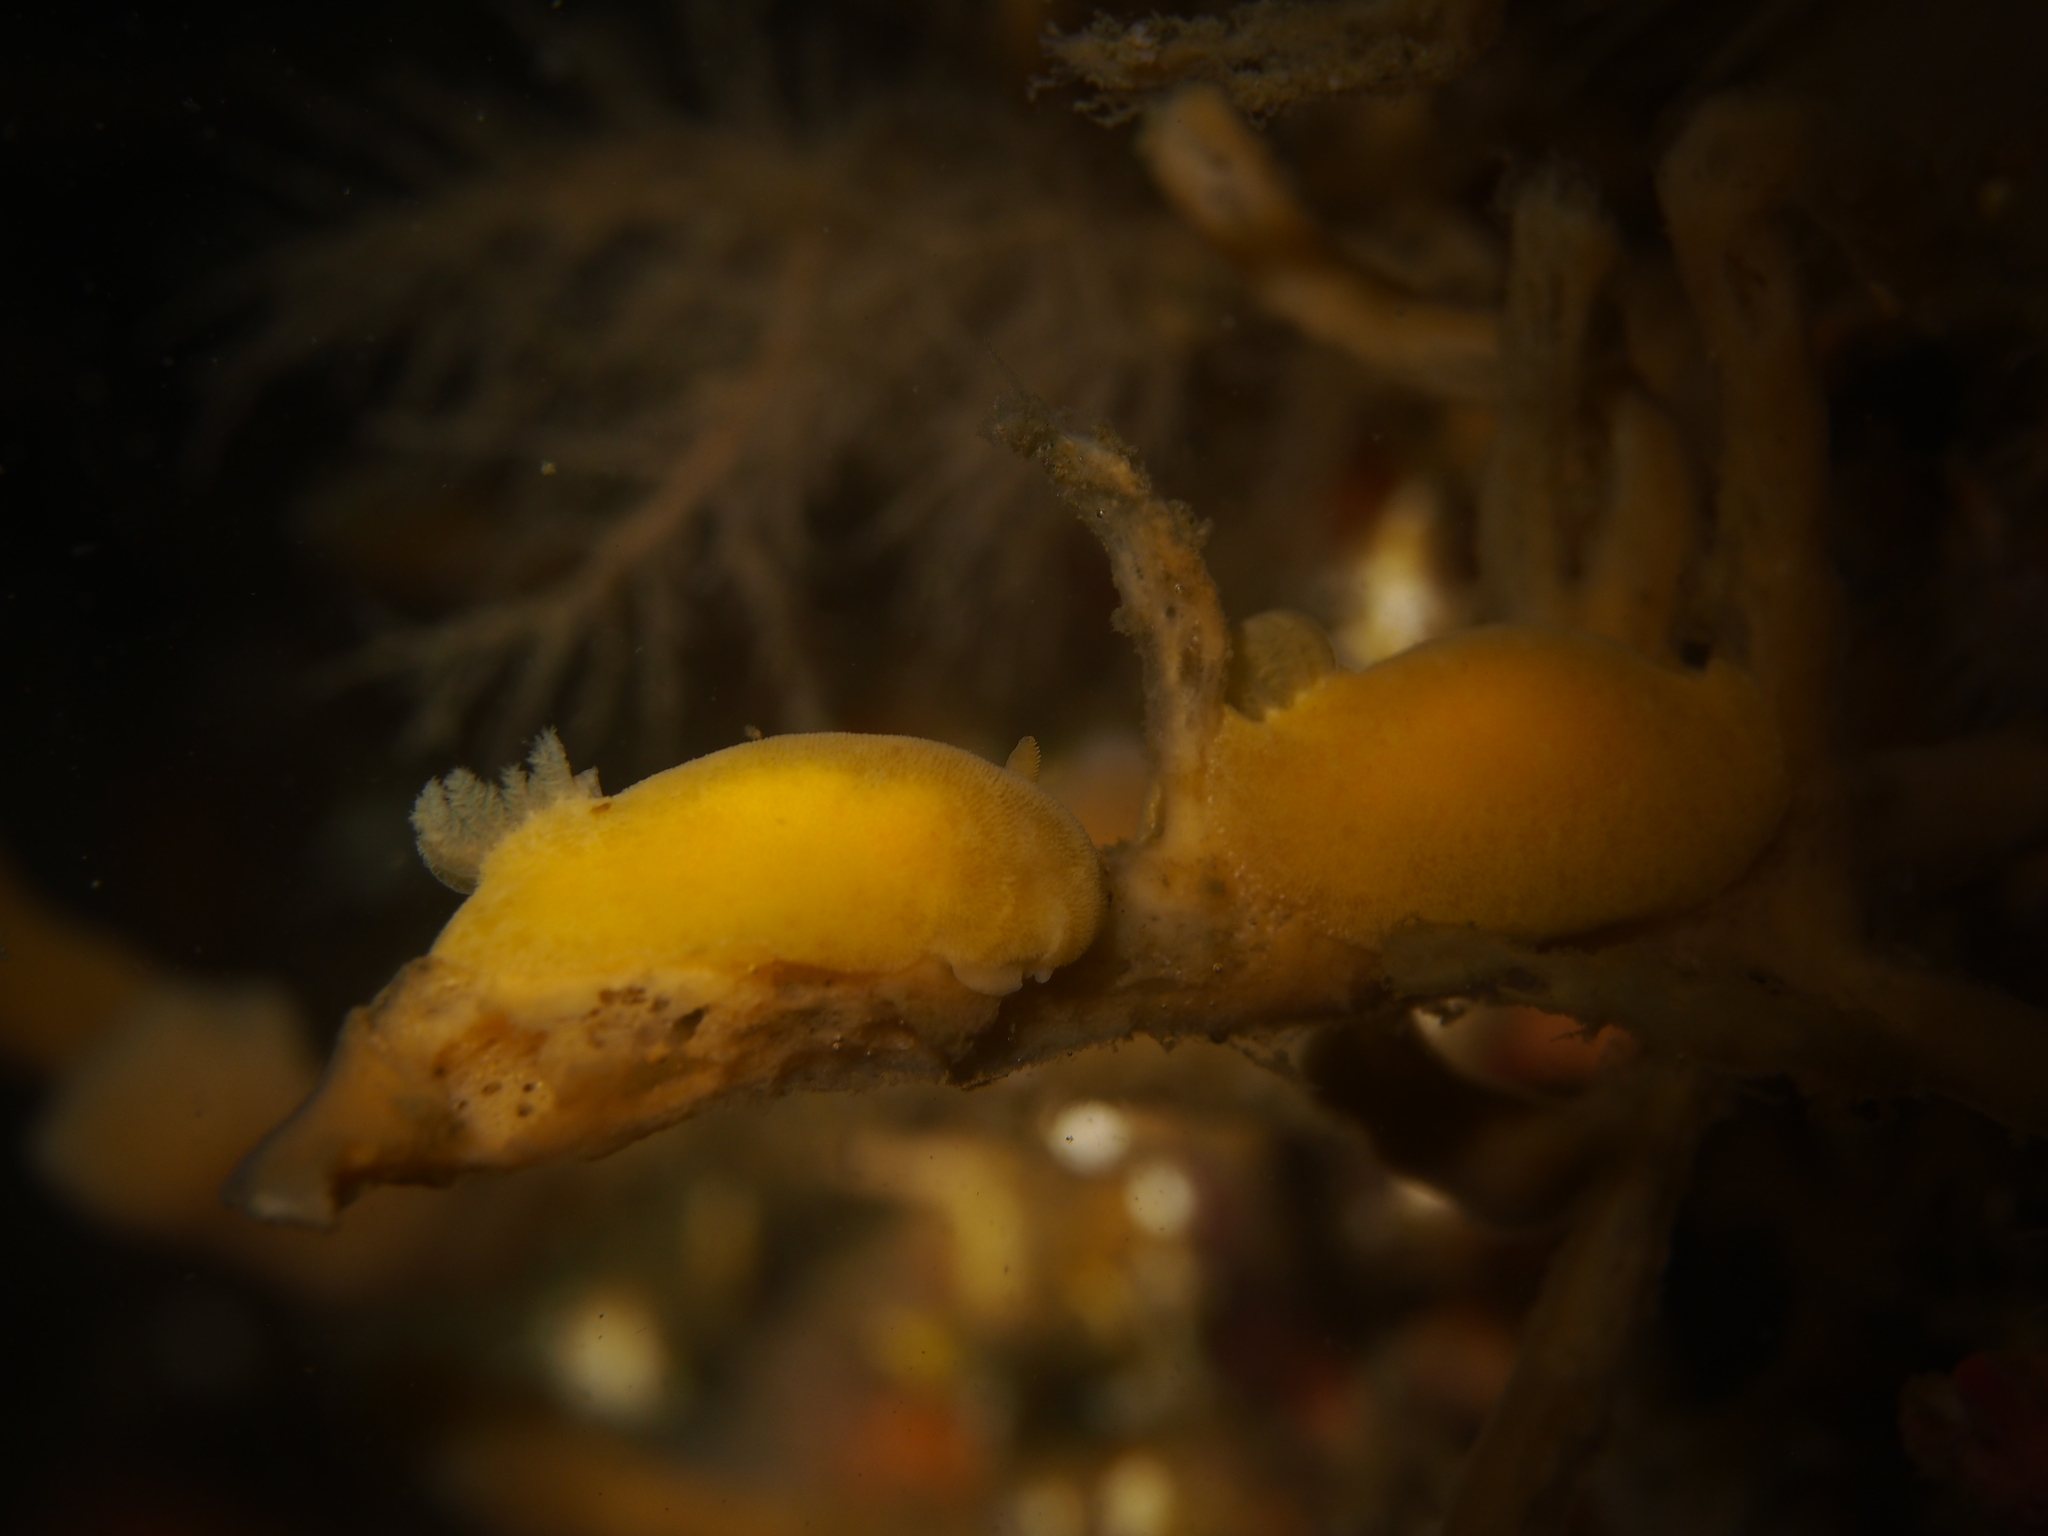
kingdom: Animalia
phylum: Mollusca
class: Gastropoda
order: Nudibranchia
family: Discodorididae
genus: Jorunna
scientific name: Jorunna tomentosa
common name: Grey sea slug
